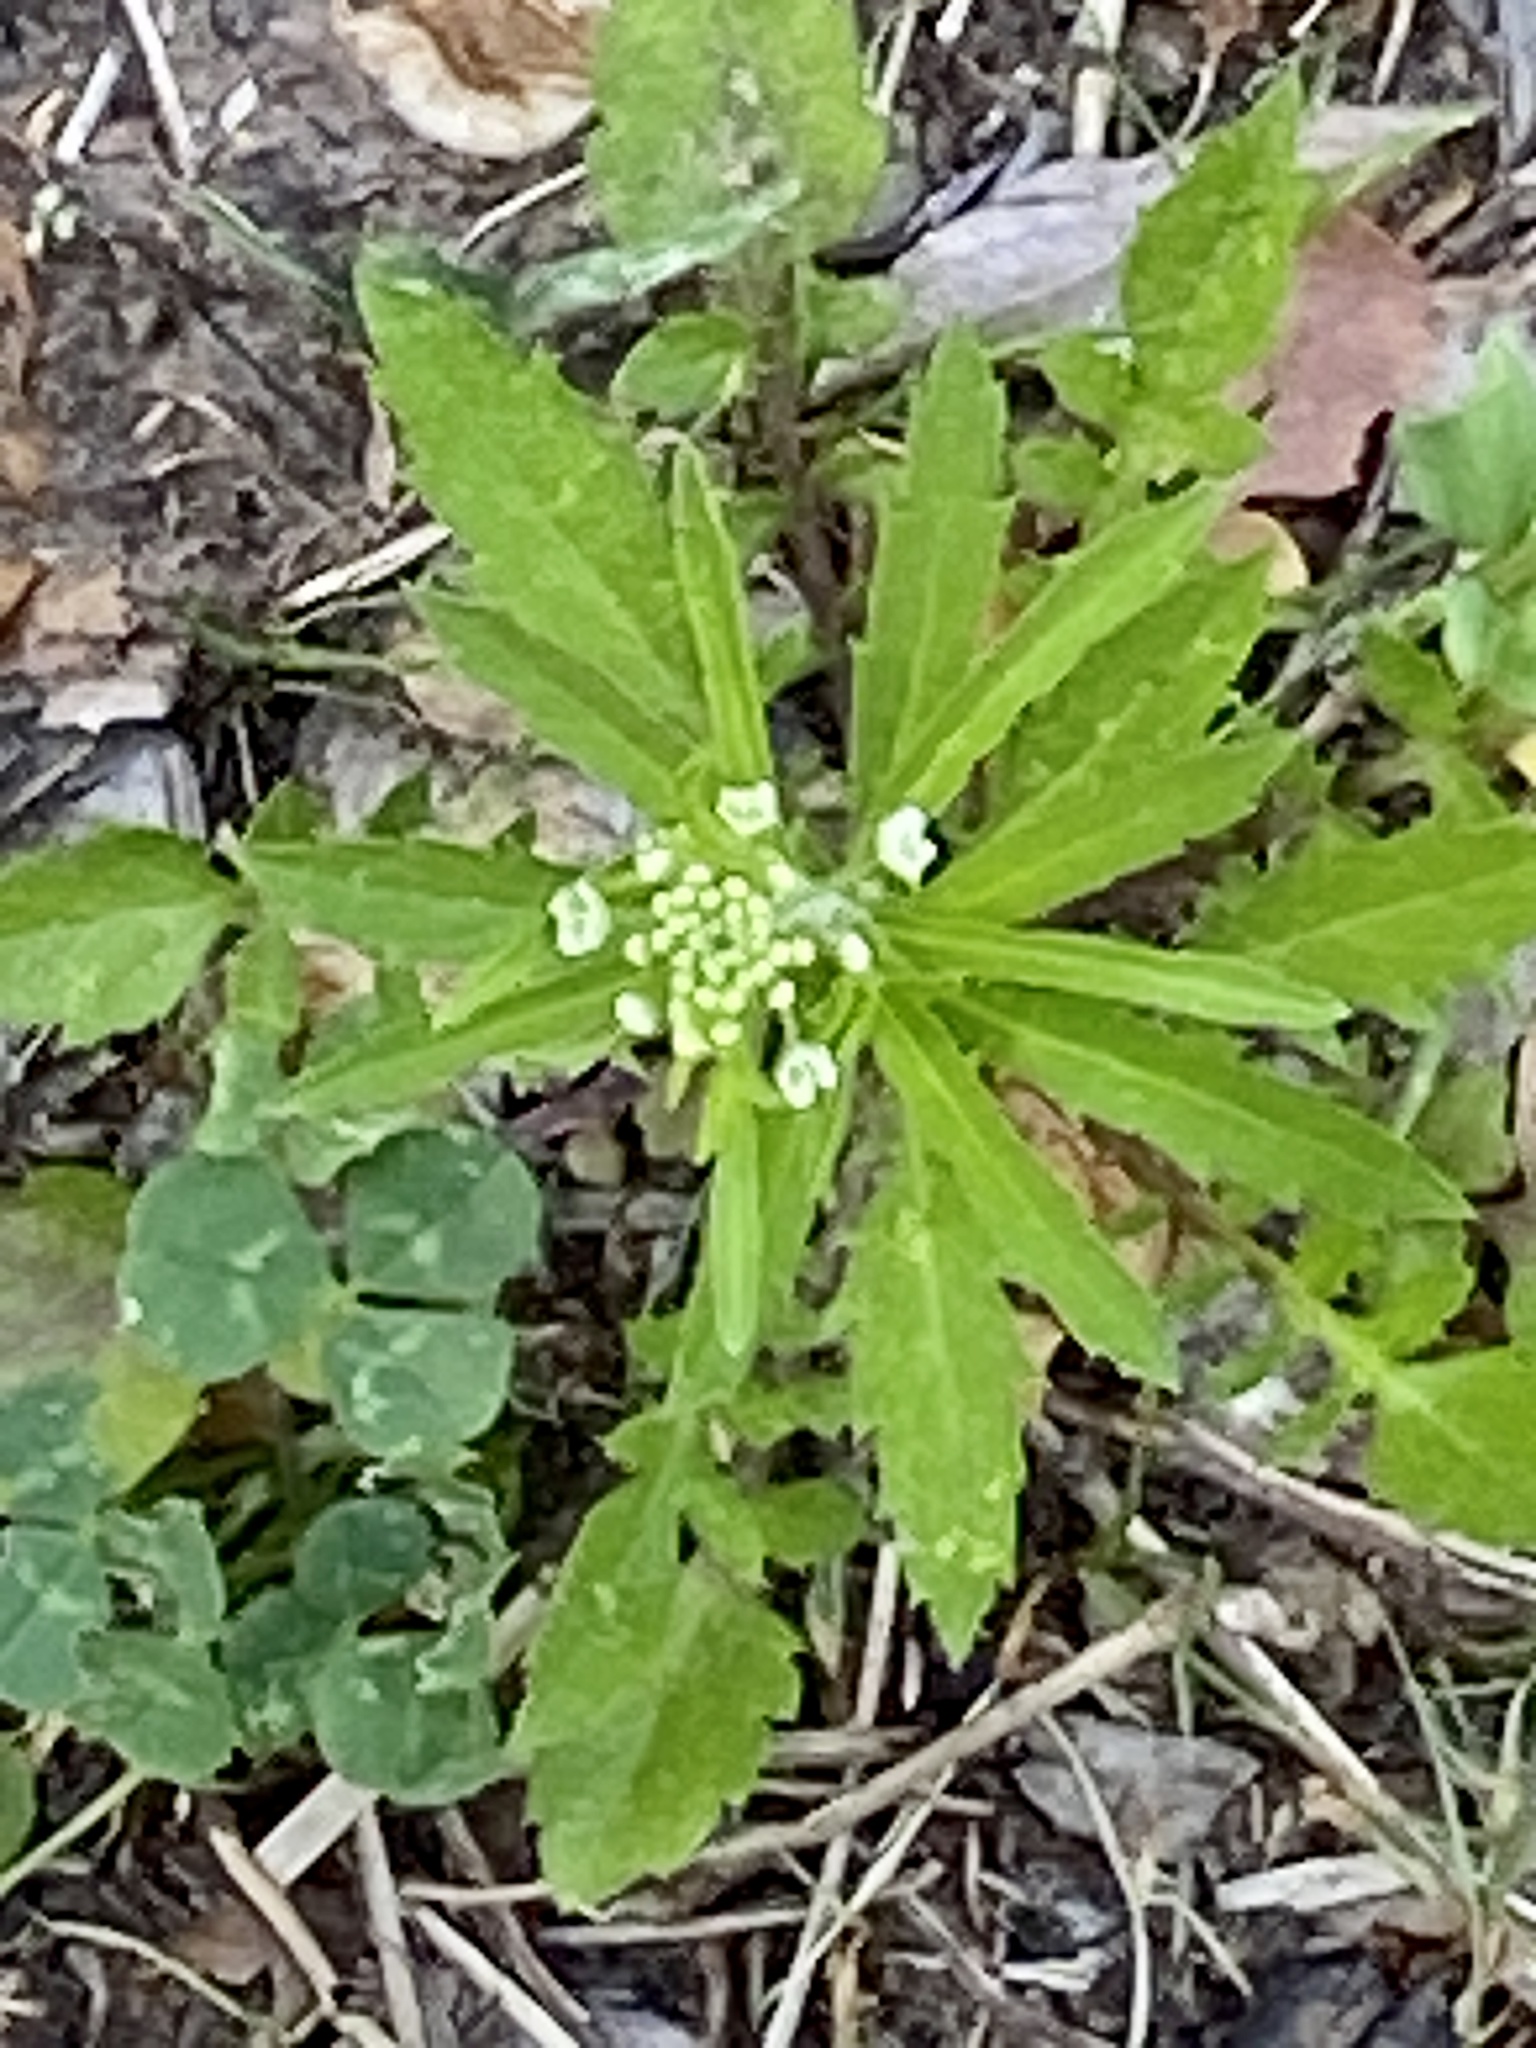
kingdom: Plantae
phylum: Tracheophyta
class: Magnoliopsida
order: Brassicales
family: Brassicaceae
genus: Lepidium
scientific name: Lepidium virginicum
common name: Least pepperwort
